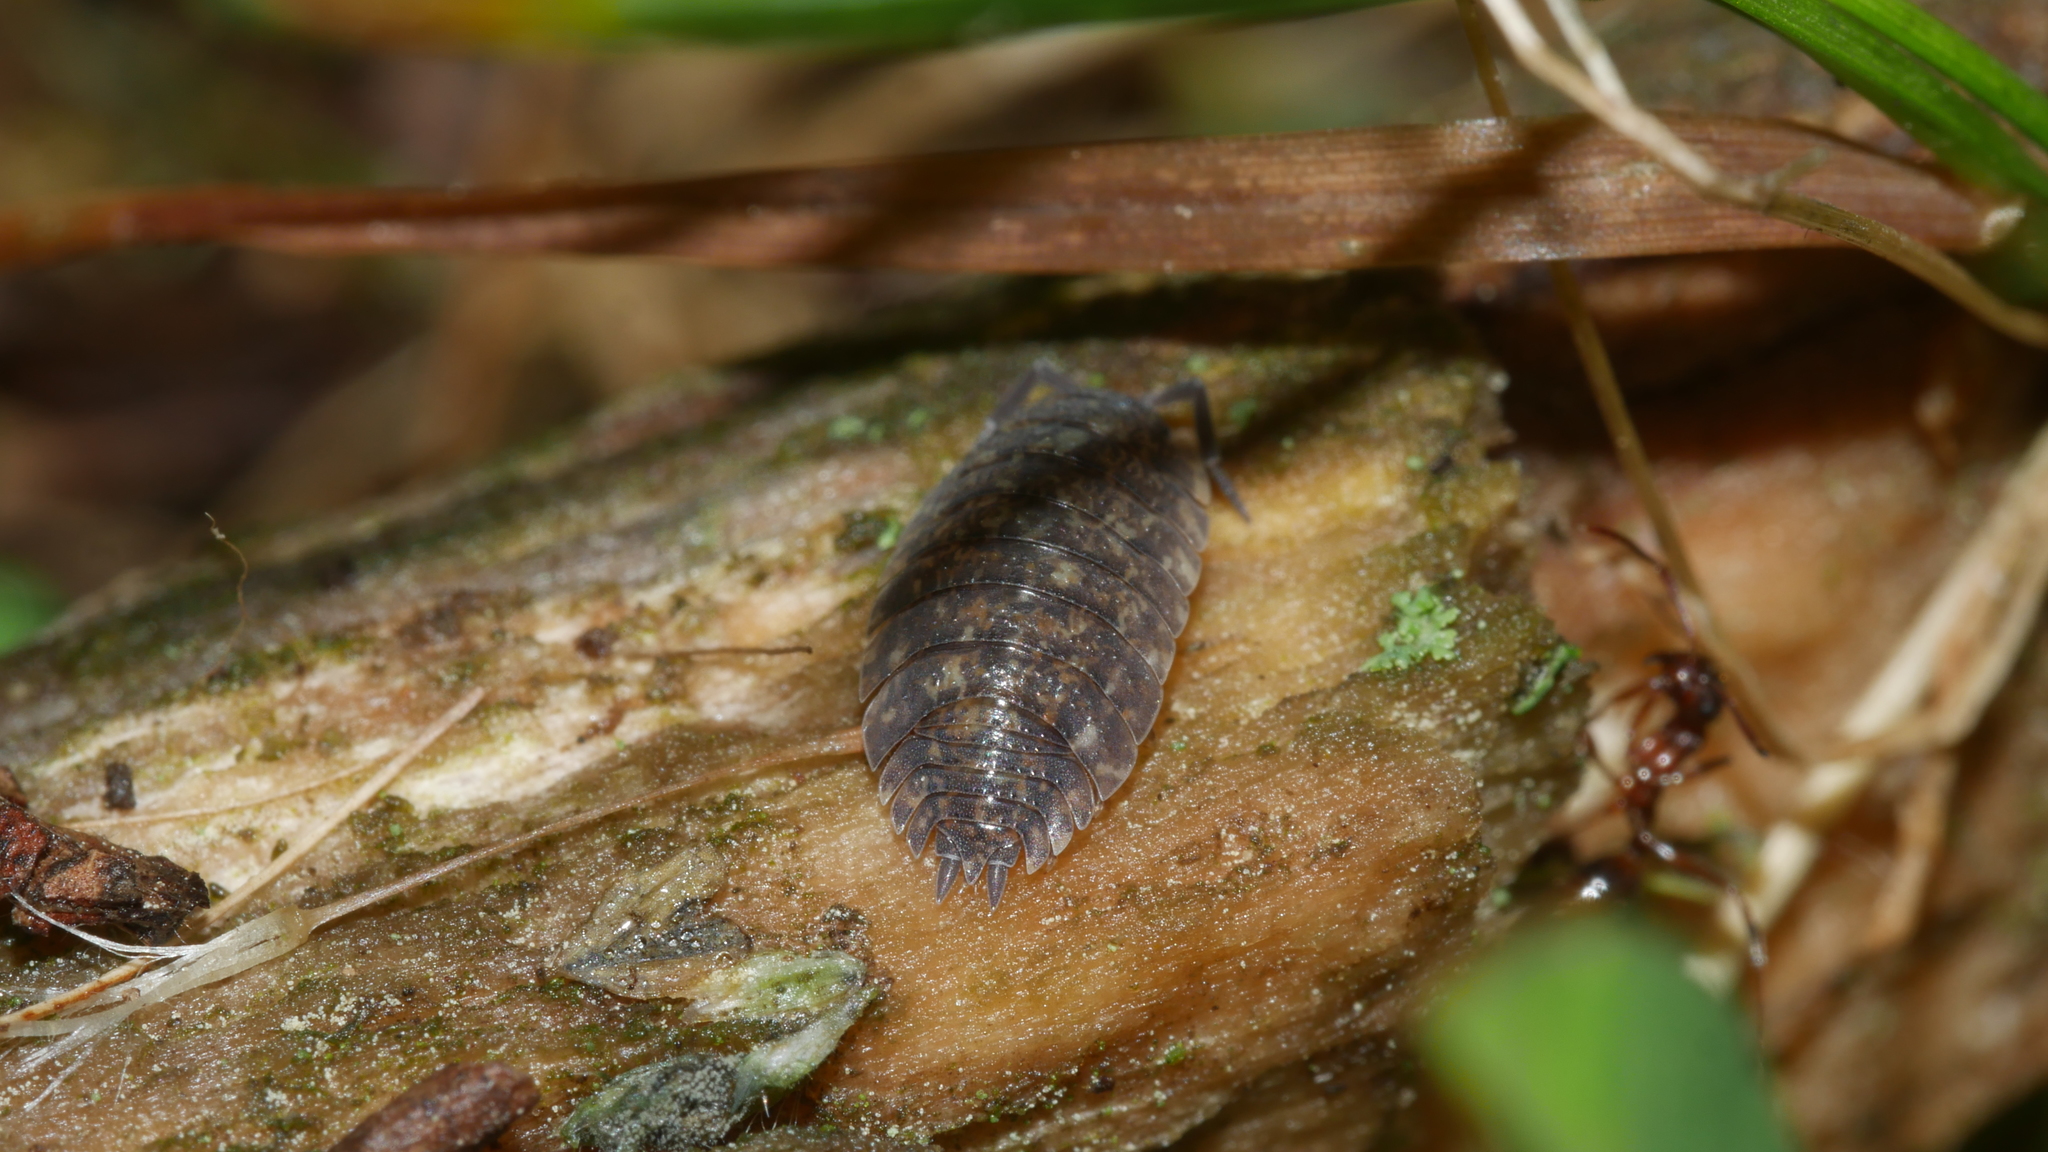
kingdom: Animalia
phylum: Arthropoda
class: Malacostraca
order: Isopoda
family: Porcellionidae
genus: Porcellio
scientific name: Porcellio scaber
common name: Common rough woodlouse
